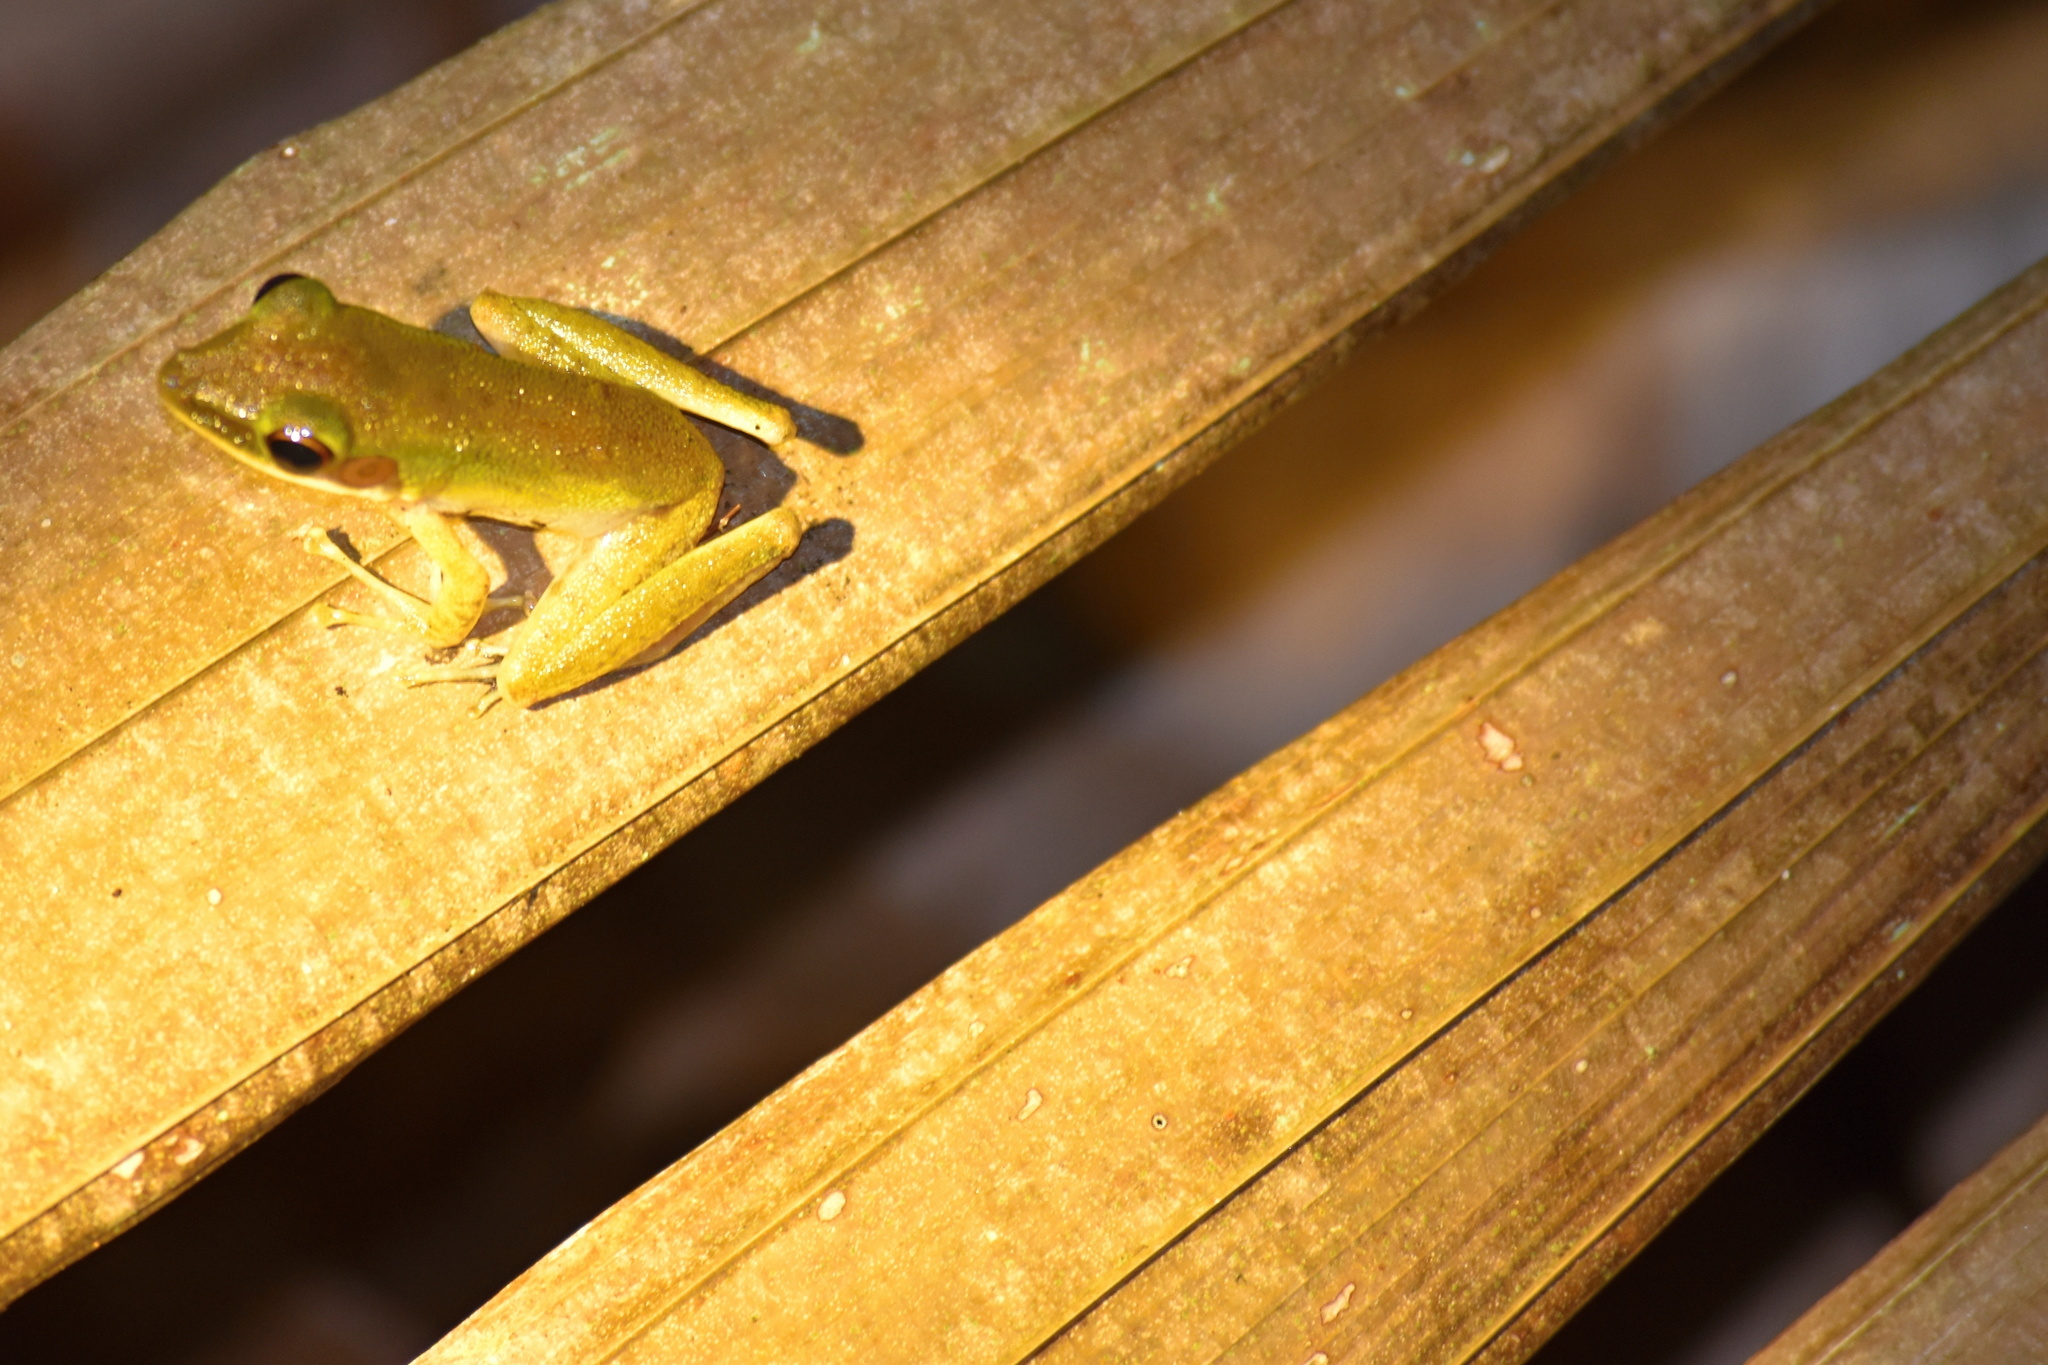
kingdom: Animalia
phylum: Chordata
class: Amphibia
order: Anura
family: Ranidae
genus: Chalcorana
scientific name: Chalcorana raniceps
